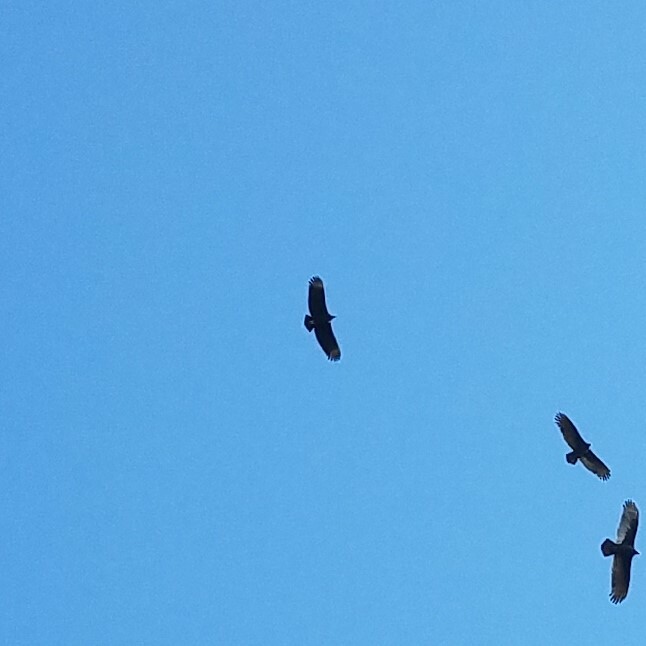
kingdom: Animalia
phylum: Chordata
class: Aves
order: Accipitriformes
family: Cathartidae
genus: Coragyps
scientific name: Coragyps atratus
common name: Black vulture
